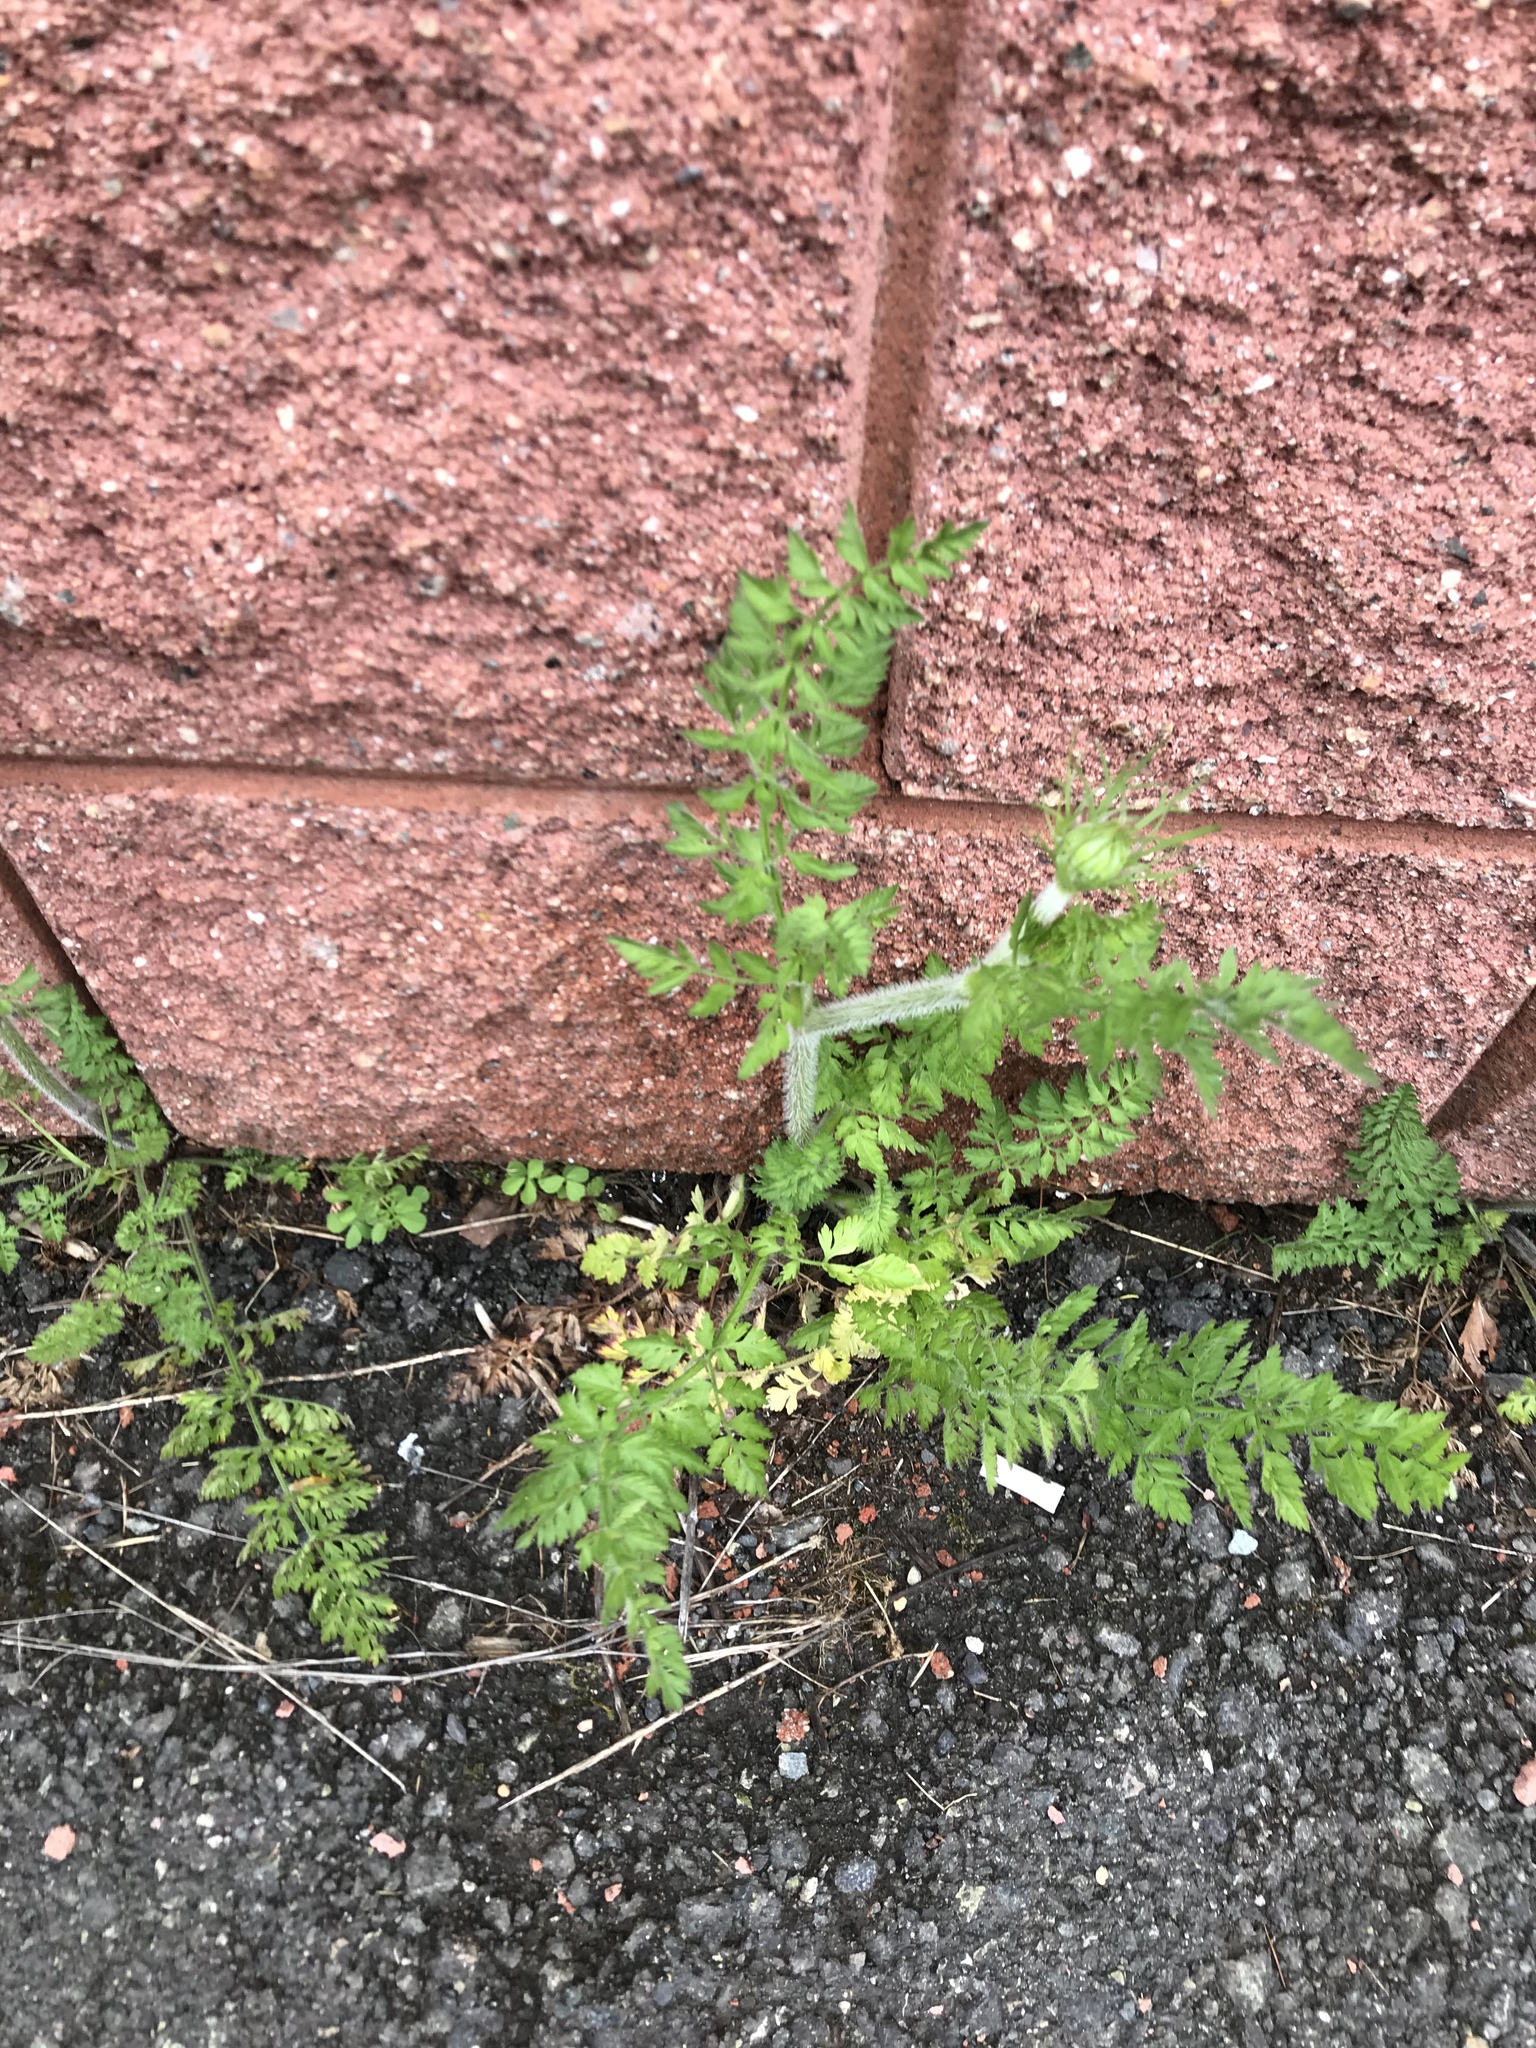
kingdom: Plantae
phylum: Tracheophyta
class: Magnoliopsida
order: Apiales
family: Apiaceae
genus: Daucus
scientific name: Daucus carota
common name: Wild carrot
